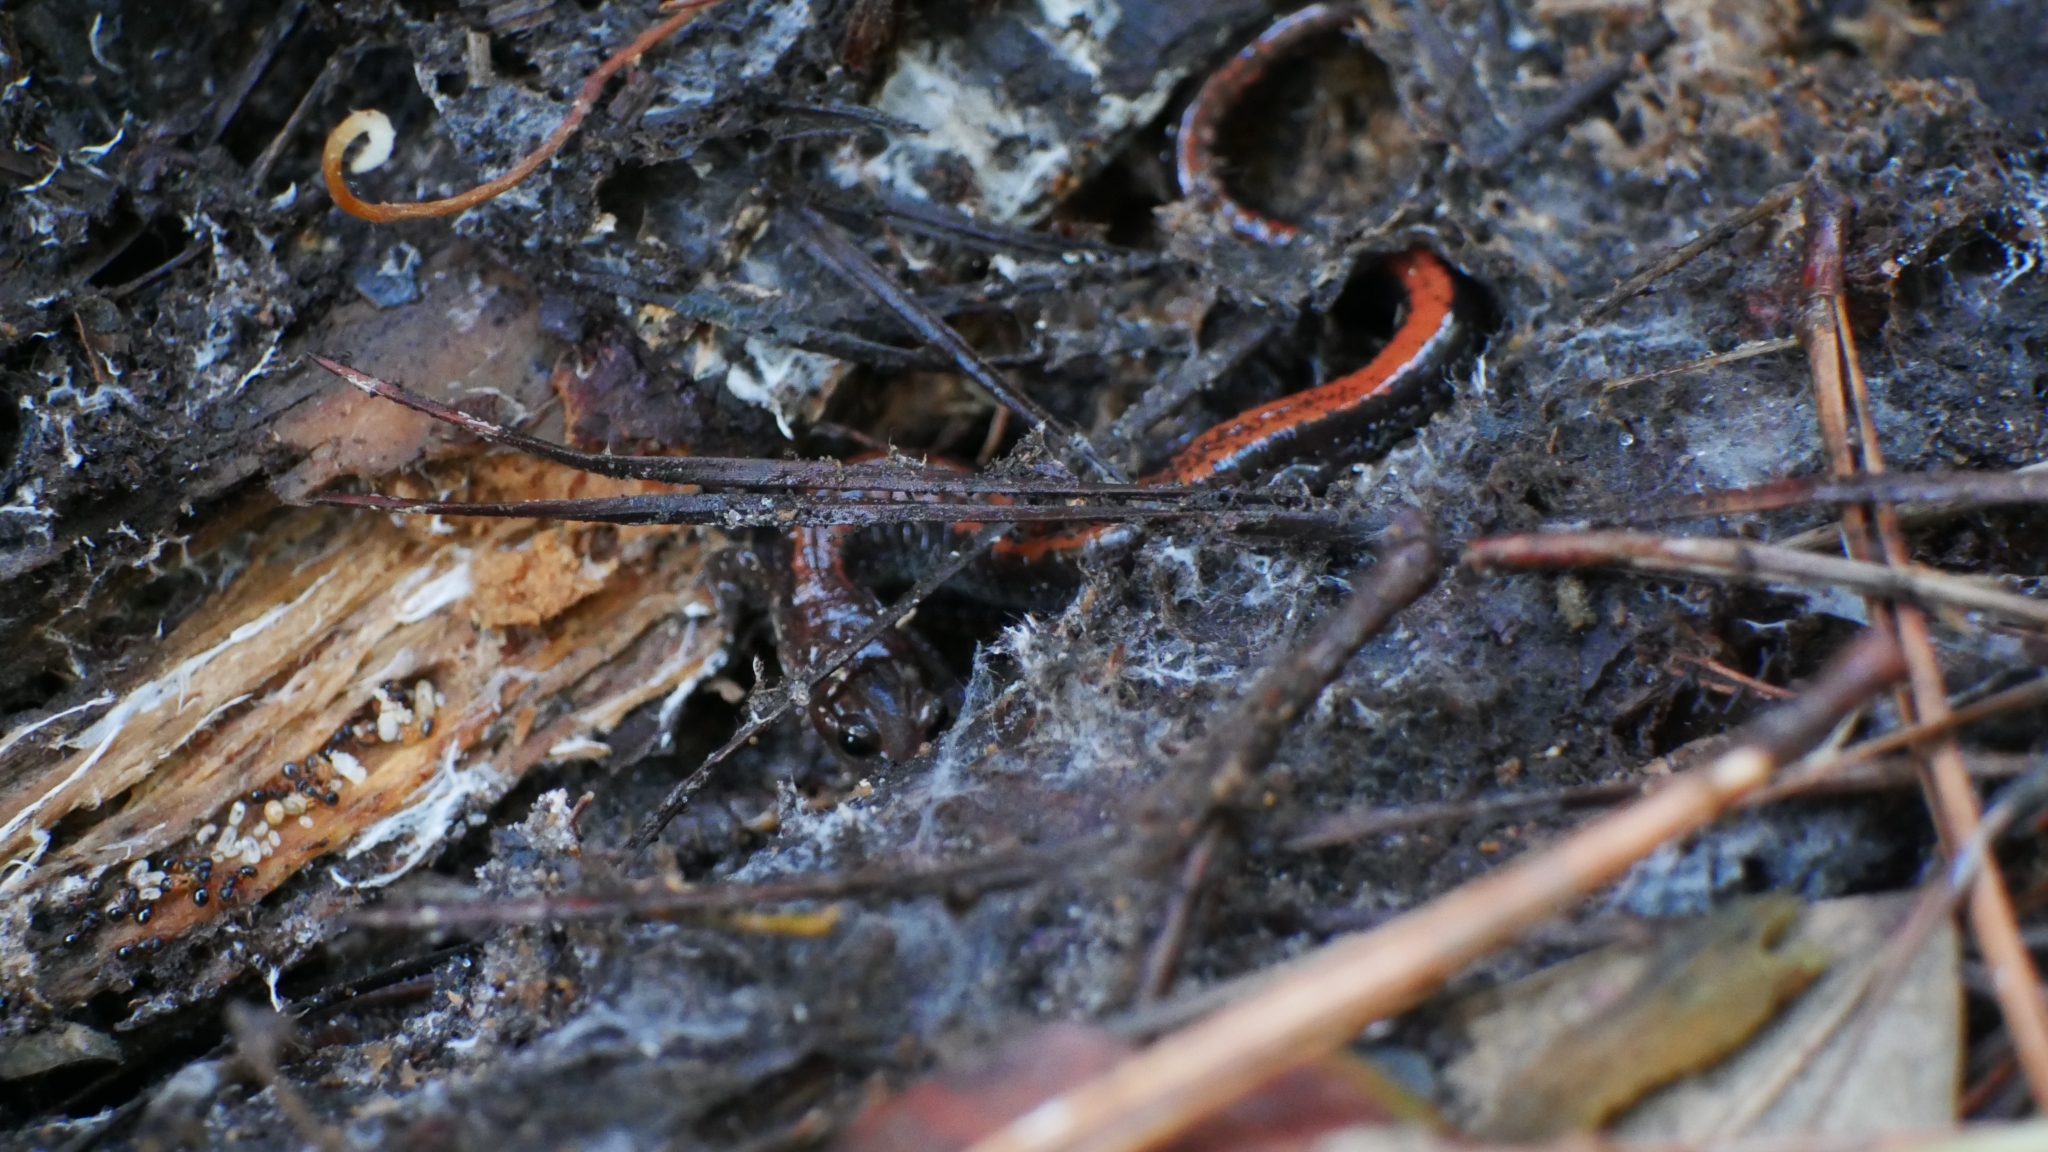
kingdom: Animalia
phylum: Chordata
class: Amphibia
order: Caudata
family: Plethodontidae
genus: Plethodon
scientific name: Plethodon cinereus
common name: Redback salamander
